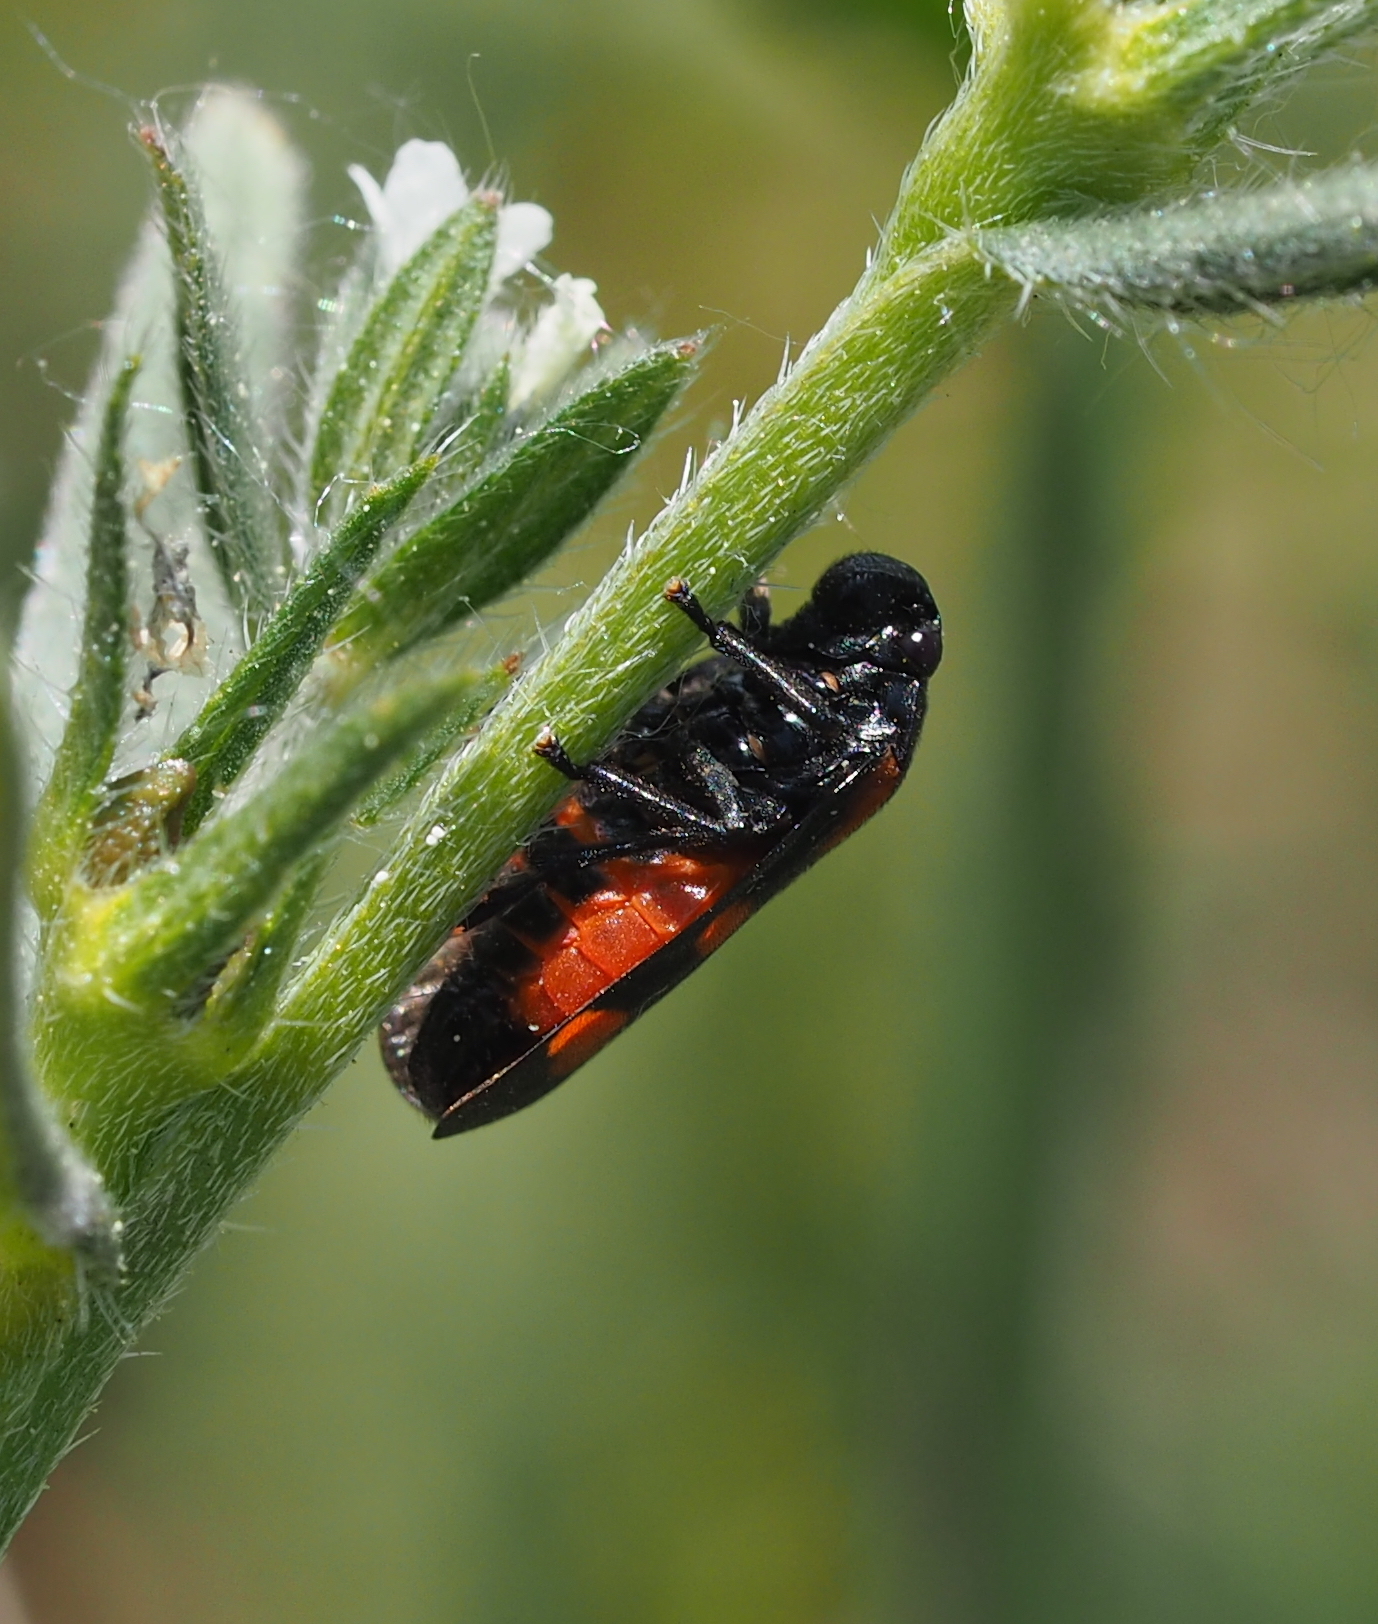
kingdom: Animalia
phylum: Arthropoda
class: Insecta
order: Hemiptera
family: Cercopidae
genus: Cercopis
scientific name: Cercopis arcuata
